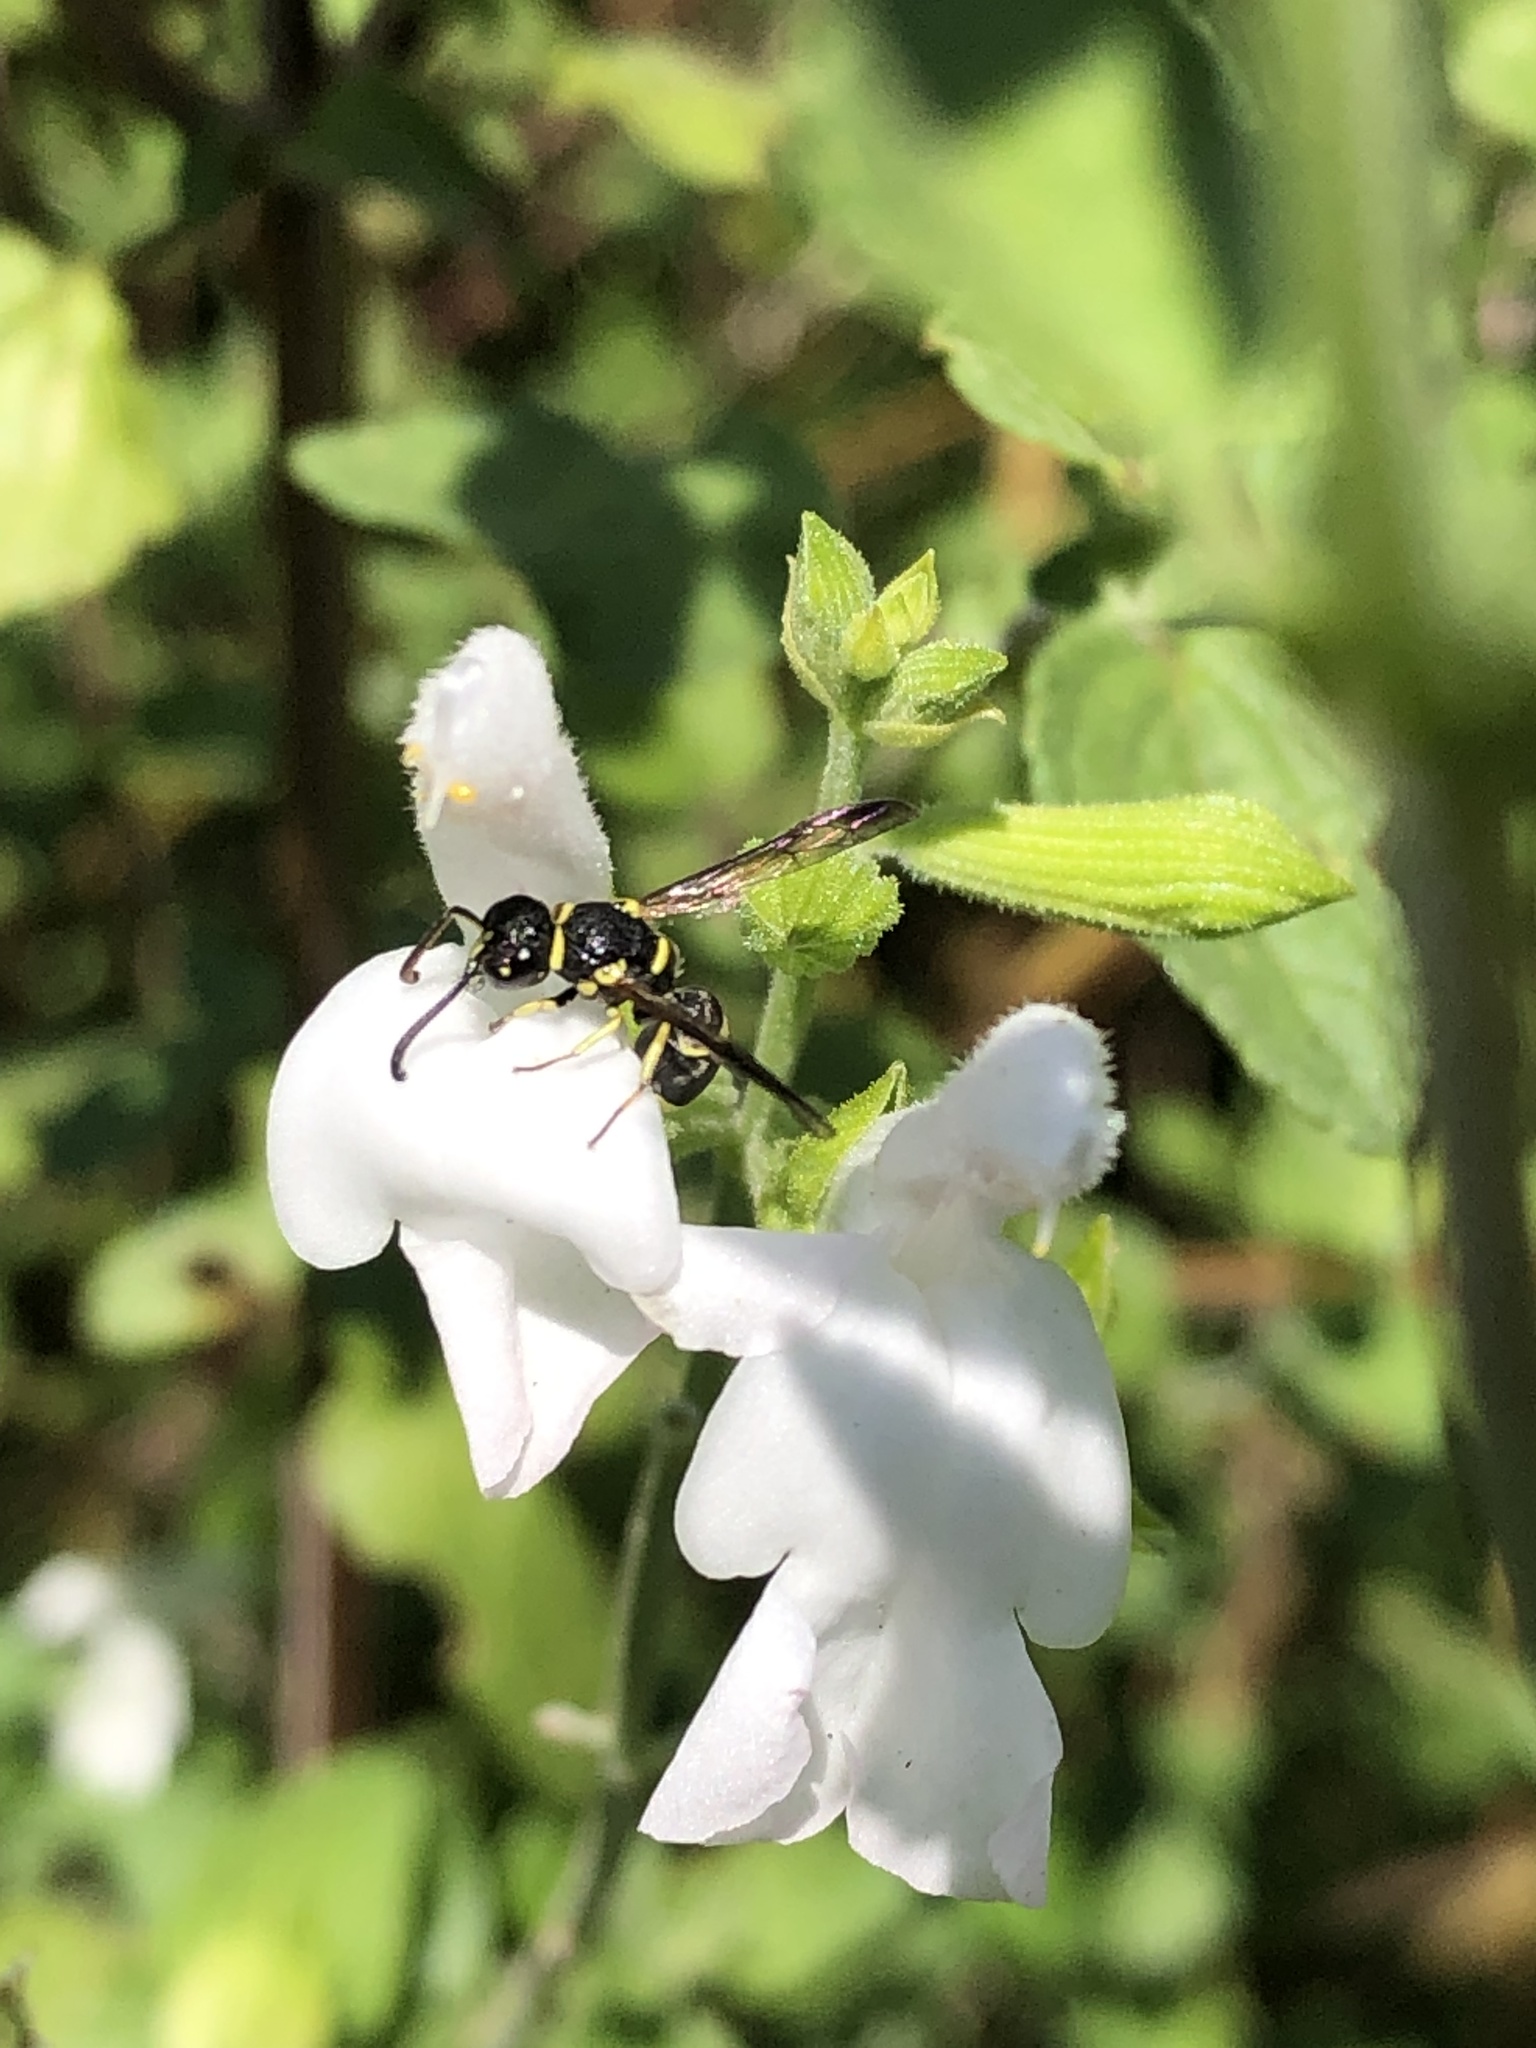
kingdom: Animalia
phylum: Arthropoda
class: Insecta
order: Hymenoptera
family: Eumenidae
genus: Parancistrocerus
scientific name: Parancistrocerus declivatus
